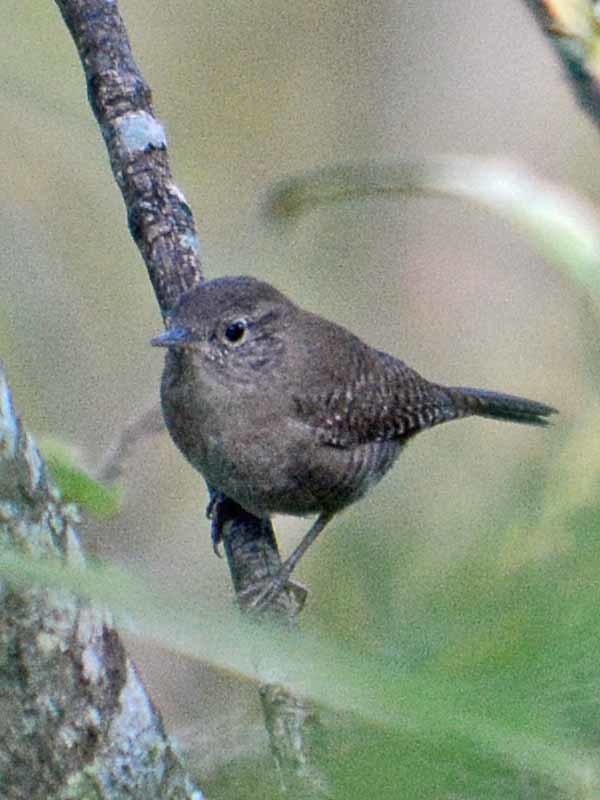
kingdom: Animalia
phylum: Chordata
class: Aves
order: Passeriformes
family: Troglodytidae
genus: Troglodytes
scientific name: Troglodytes aedon
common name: House wren
